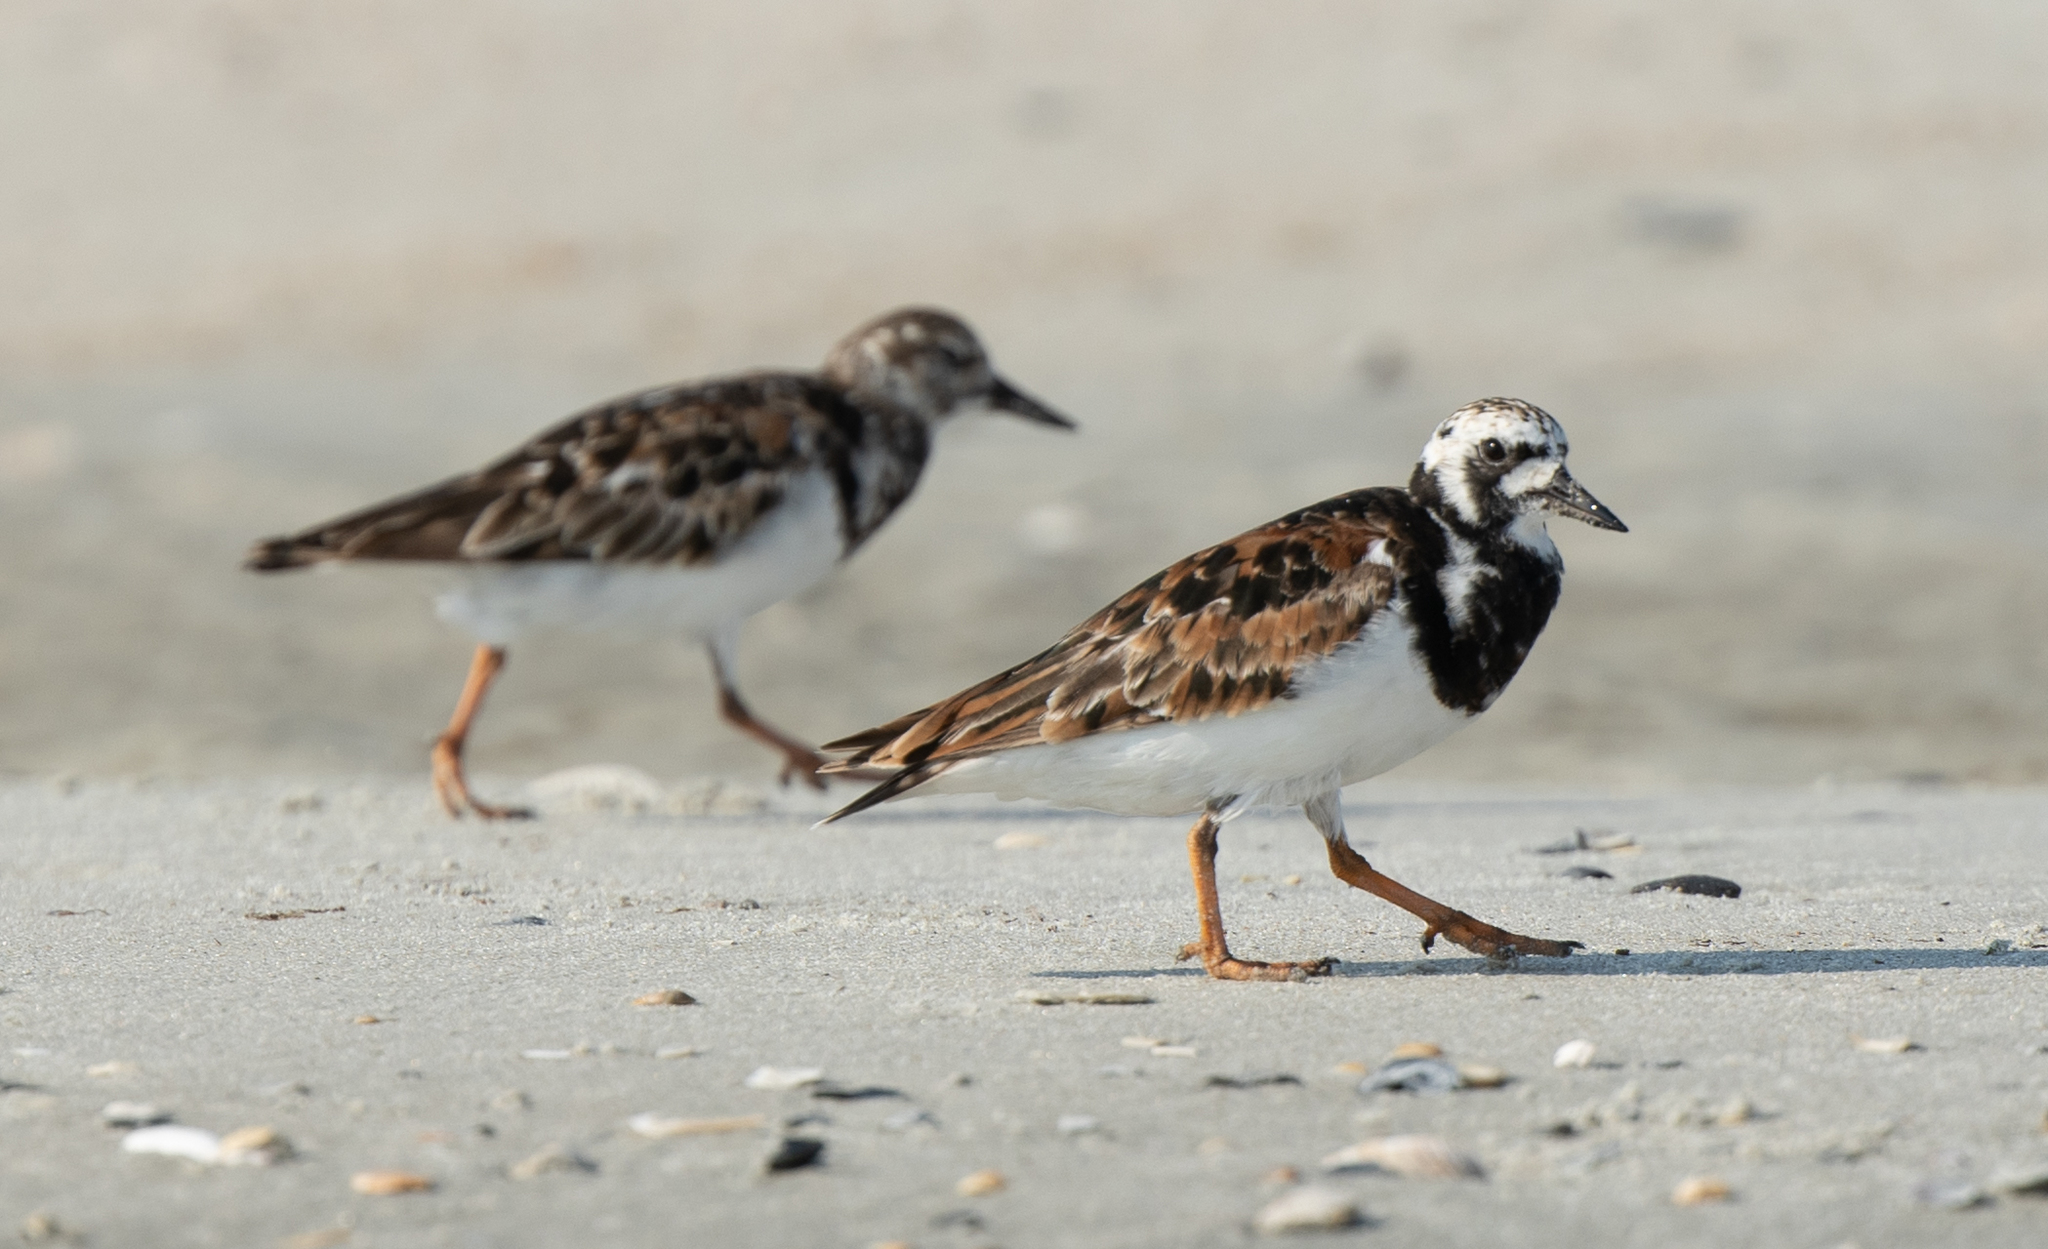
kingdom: Animalia
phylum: Chordata
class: Aves
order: Charadriiformes
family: Scolopacidae
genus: Arenaria
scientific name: Arenaria interpres
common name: Ruddy turnstone
